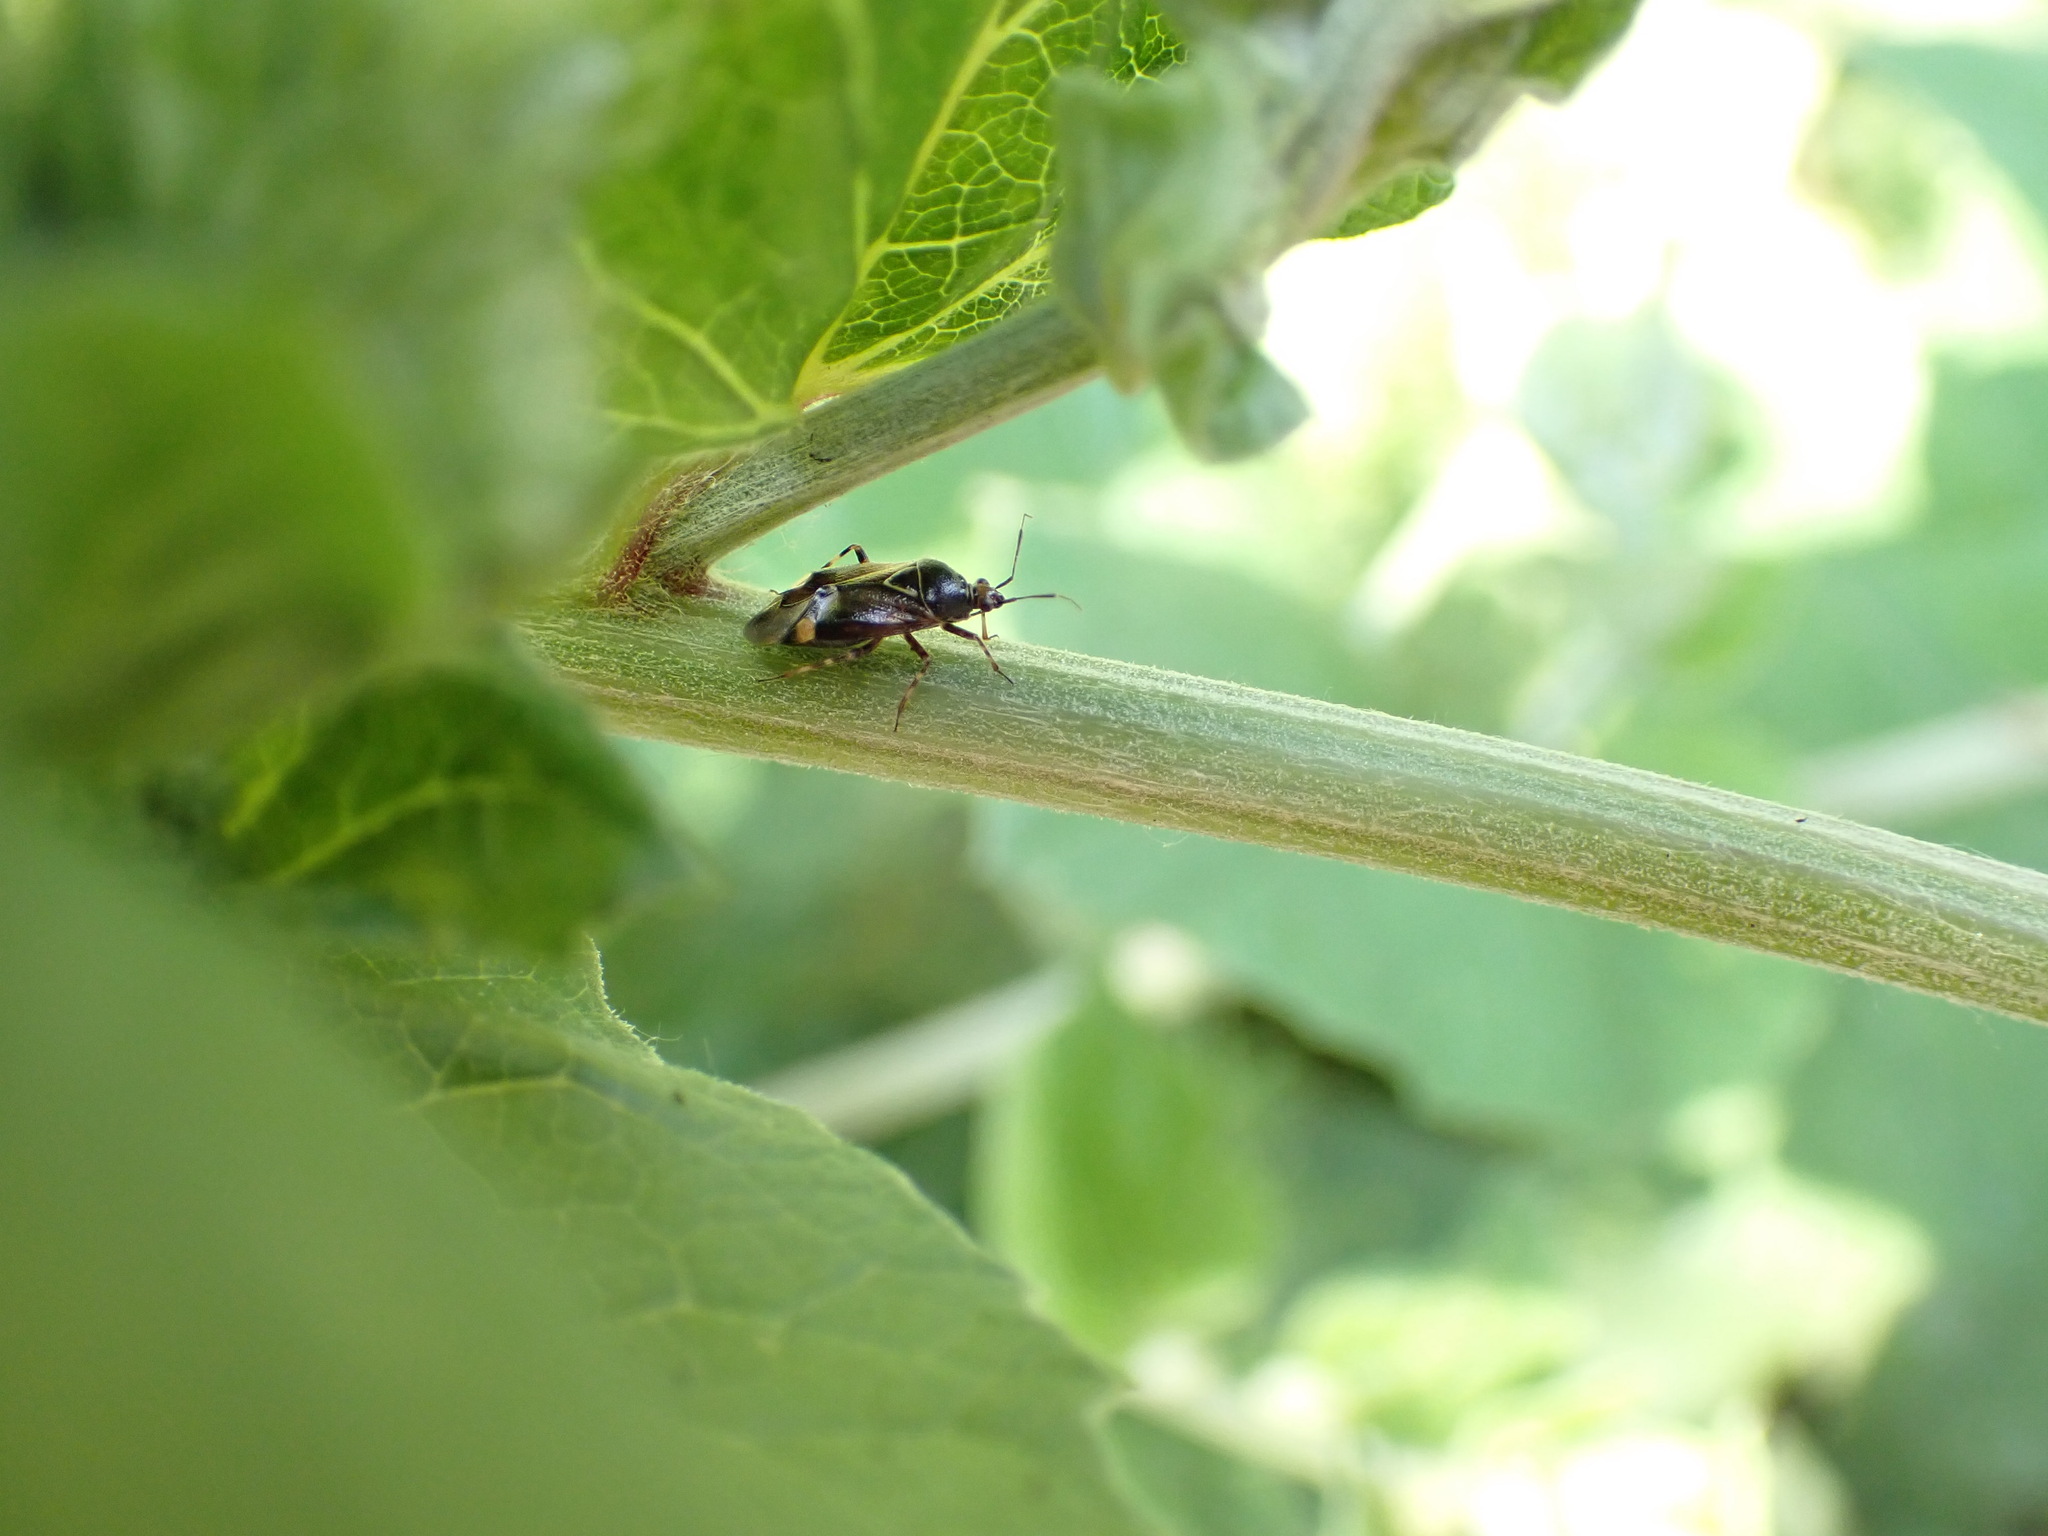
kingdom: Animalia
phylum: Arthropoda
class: Insecta
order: Hemiptera
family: Miridae
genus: Deraeocoris
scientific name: Deraeocoris flavilinea
